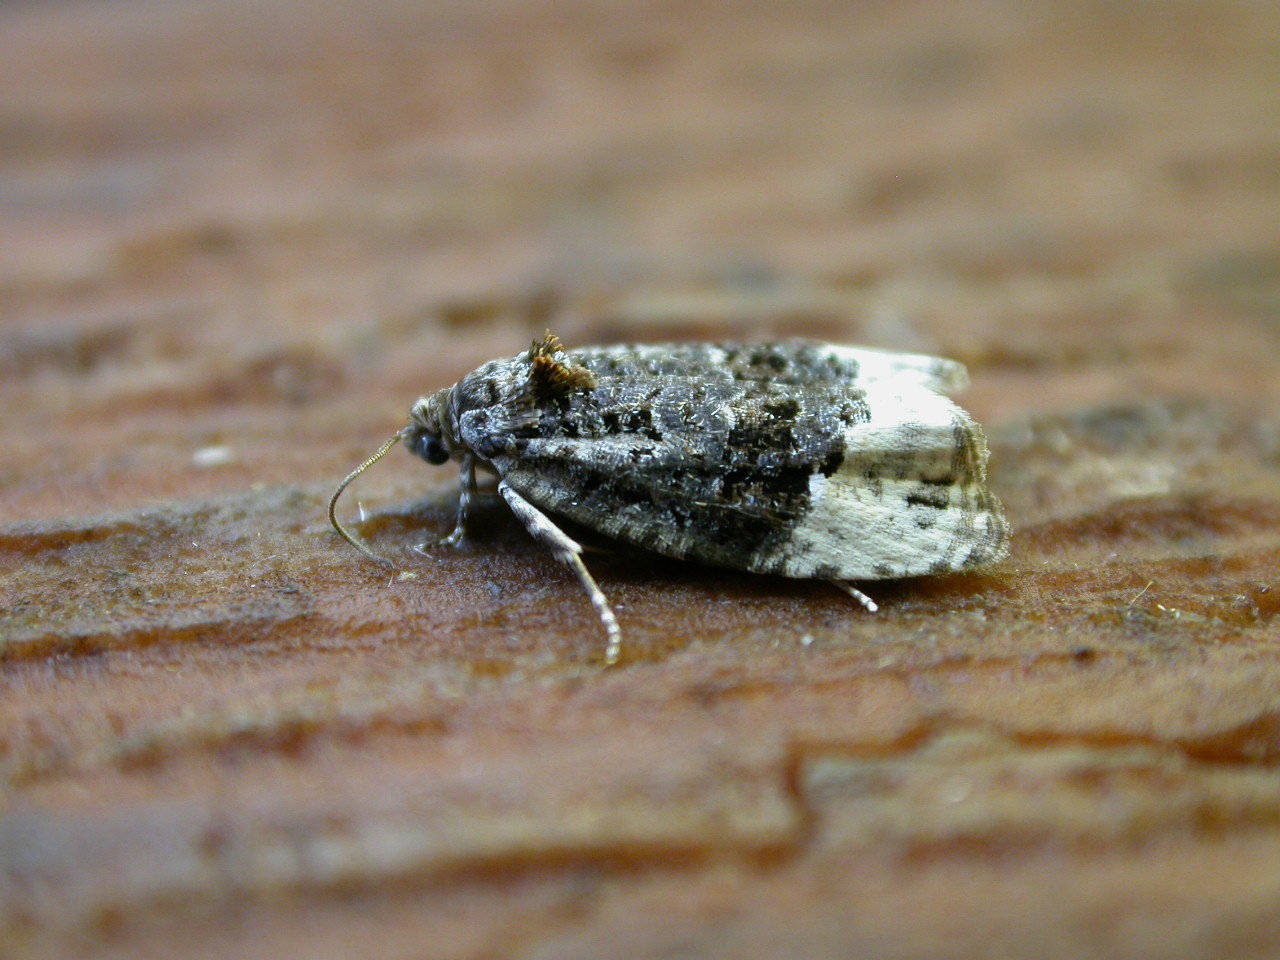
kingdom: Animalia
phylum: Arthropoda
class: Insecta
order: Lepidoptera
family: Tortricidae
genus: Apotomis
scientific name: Apotomis betuletana
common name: Birch marble
